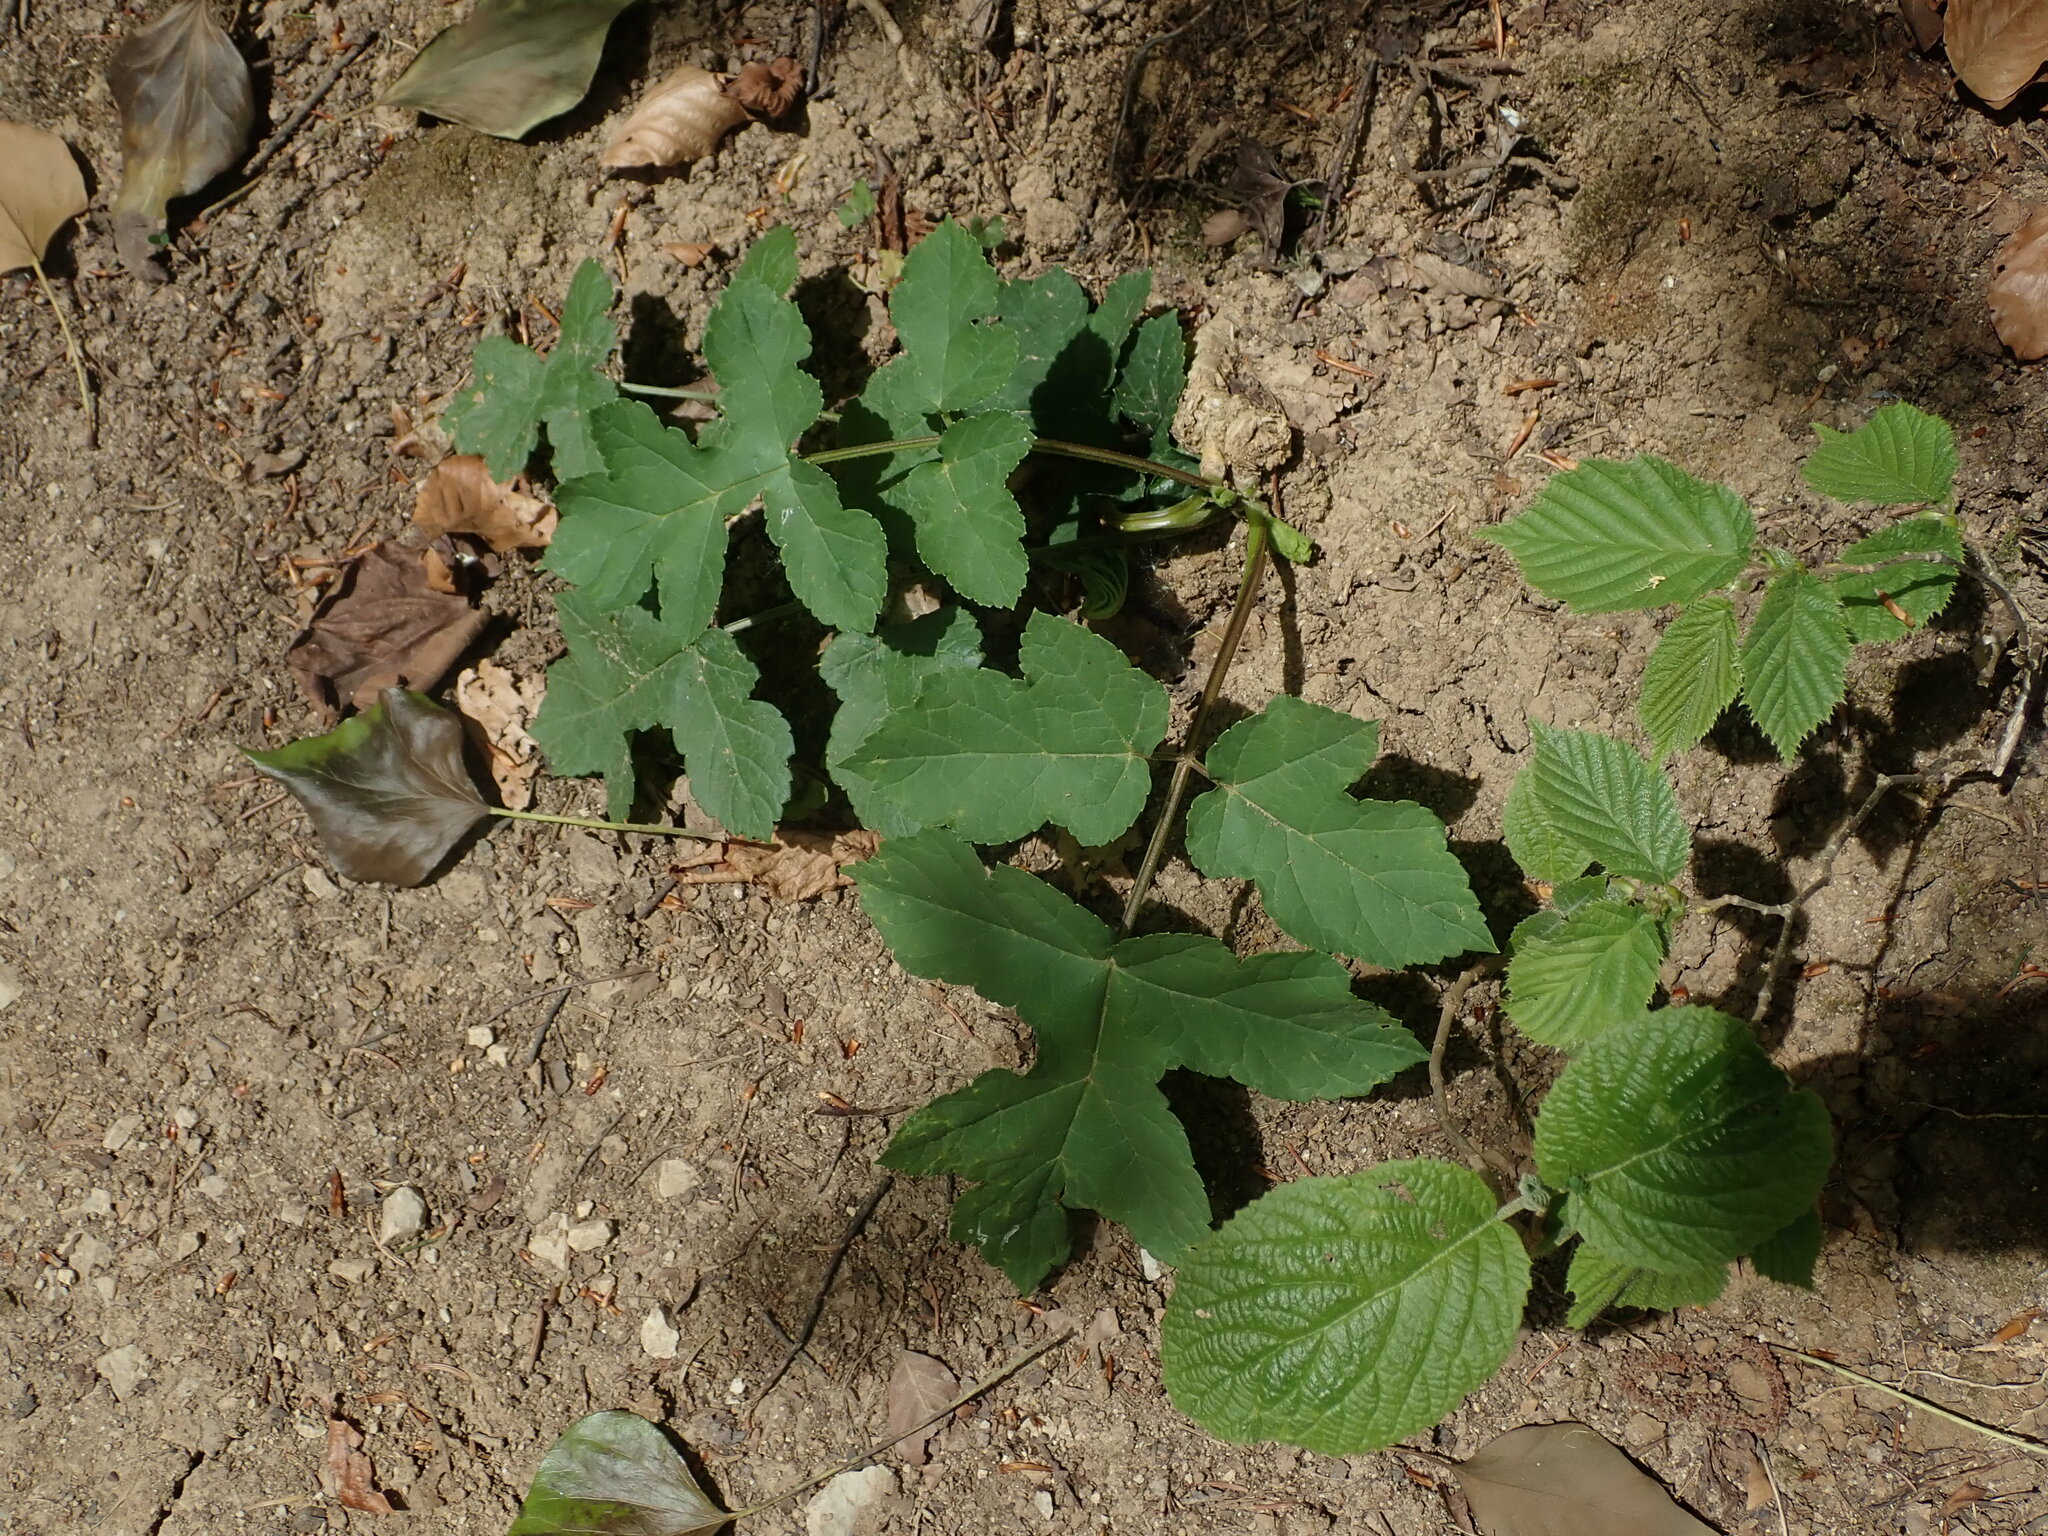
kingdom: Plantae
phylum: Tracheophyta
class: Magnoliopsida
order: Apiales
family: Apiaceae
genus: Heracleum
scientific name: Heracleum sphondylium
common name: Hogweed
